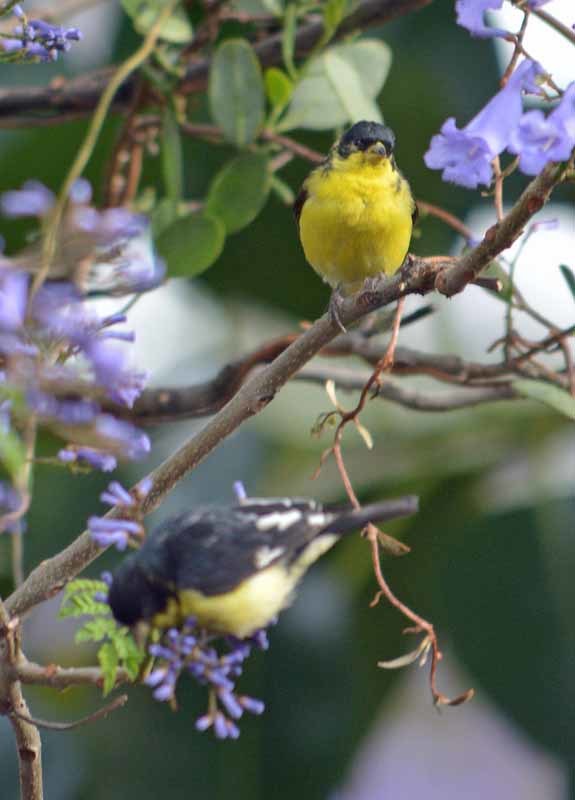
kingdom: Animalia
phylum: Chordata
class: Aves
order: Passeriformes
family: Fringillidae
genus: Spinus
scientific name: Spinus psaltria
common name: Lesser goldfinch
